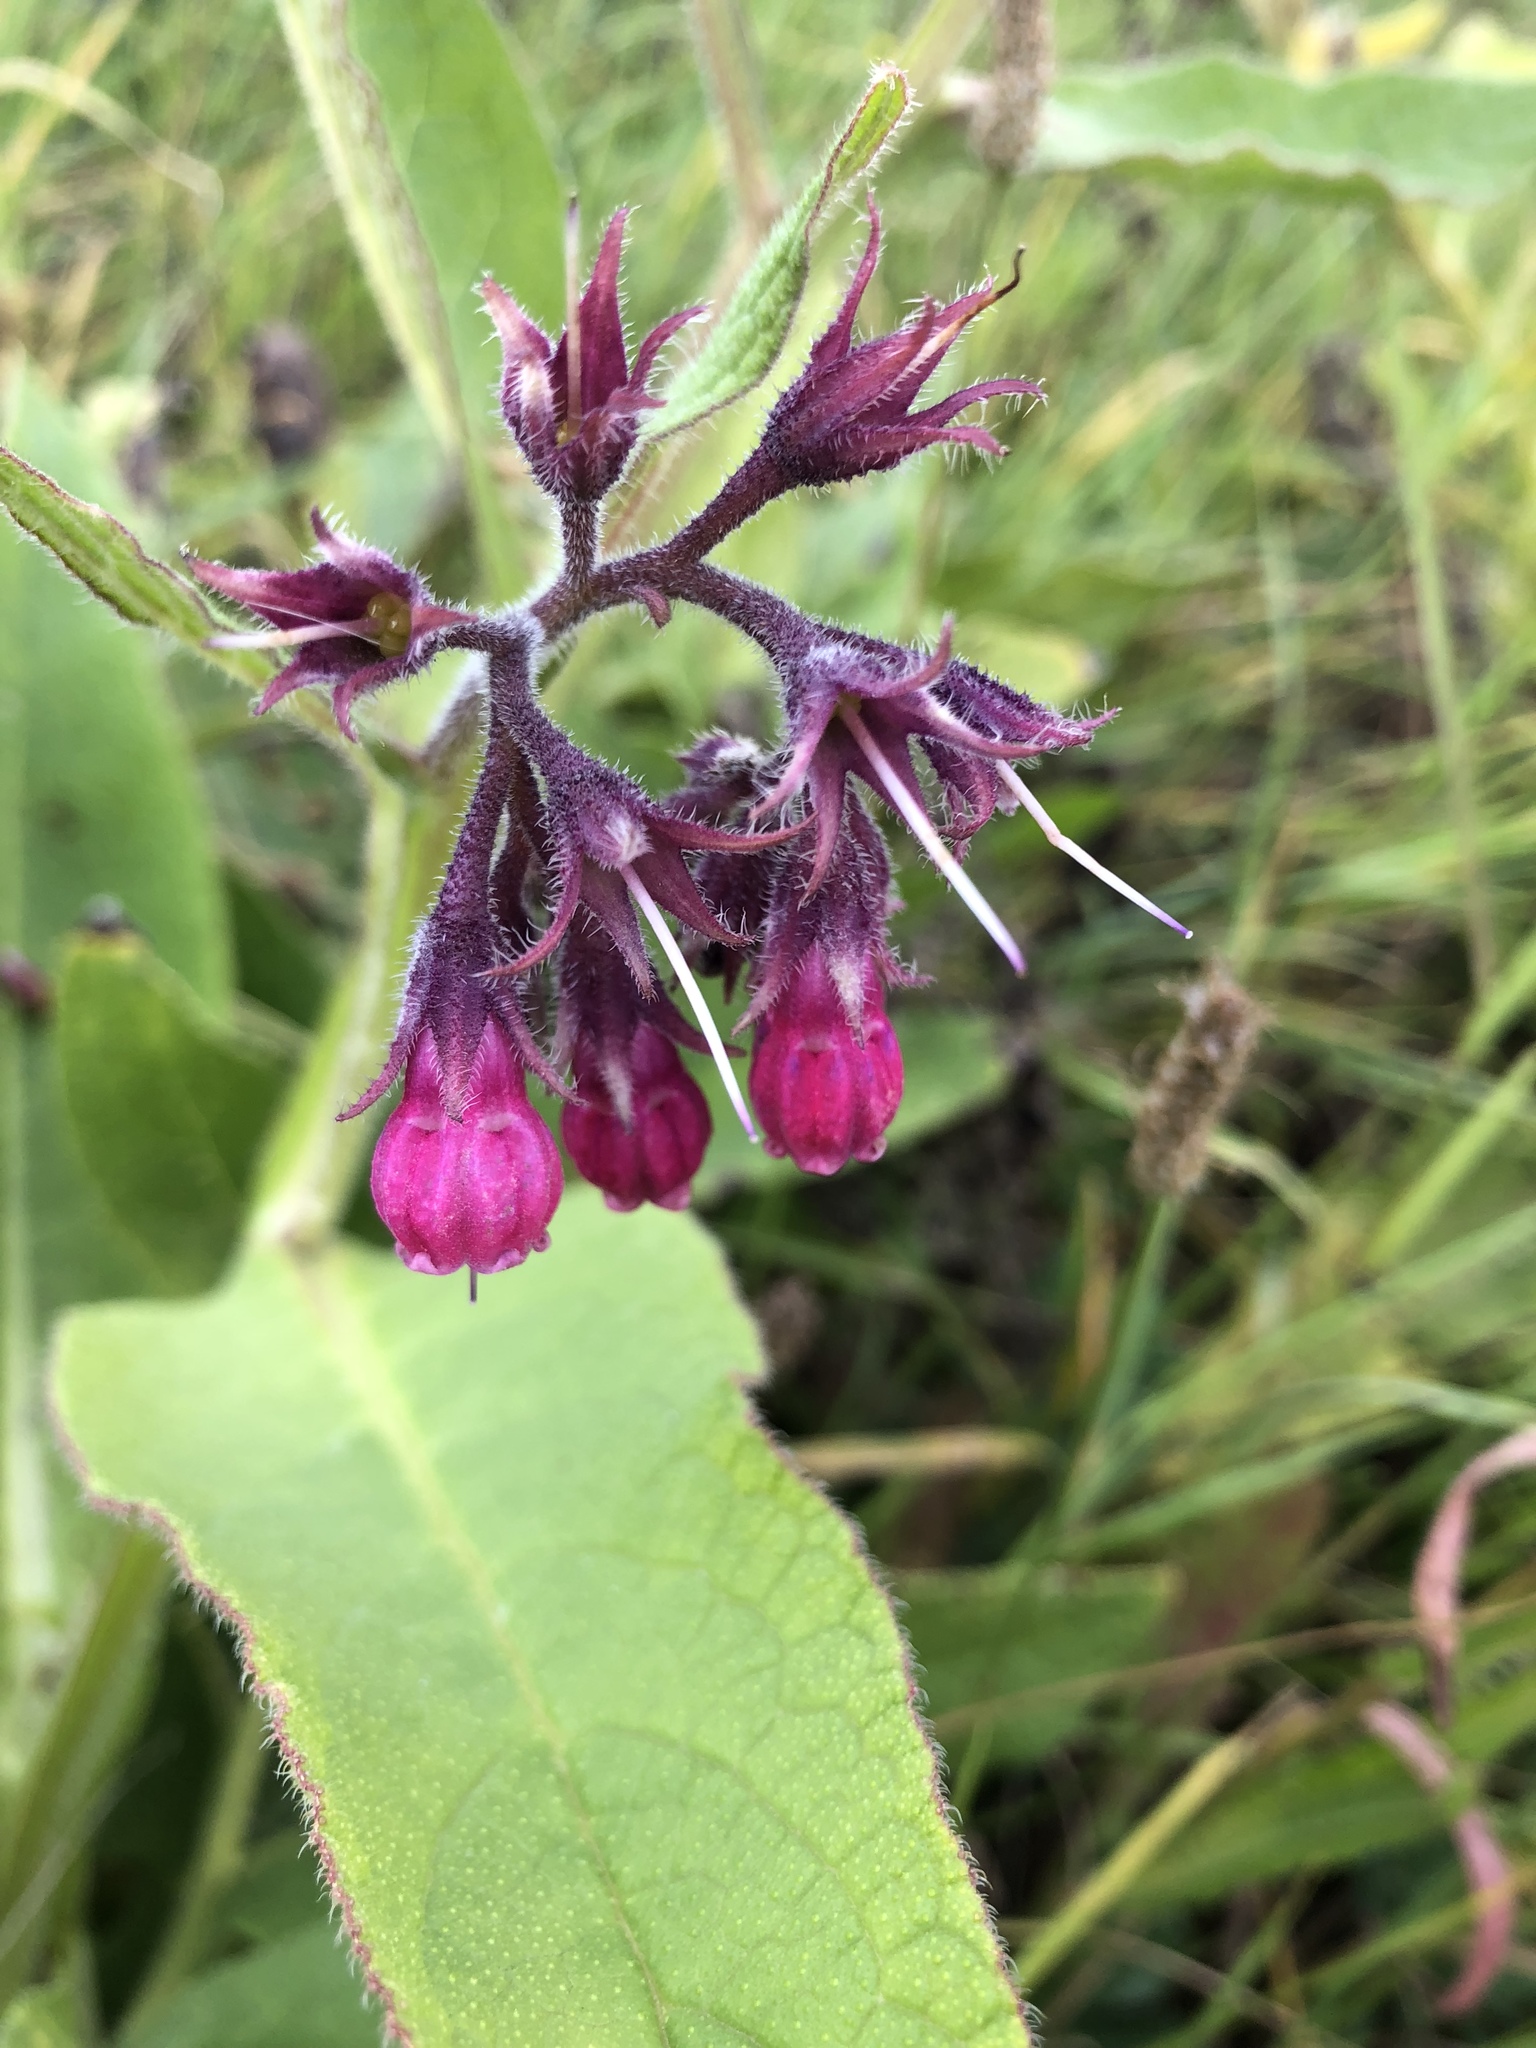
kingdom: Plantae
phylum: Tracheophyta
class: Magnoliopsida
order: Boraginales
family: Boraginaceae
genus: Symphytum
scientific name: Symphytum officinale
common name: Common comfrey
